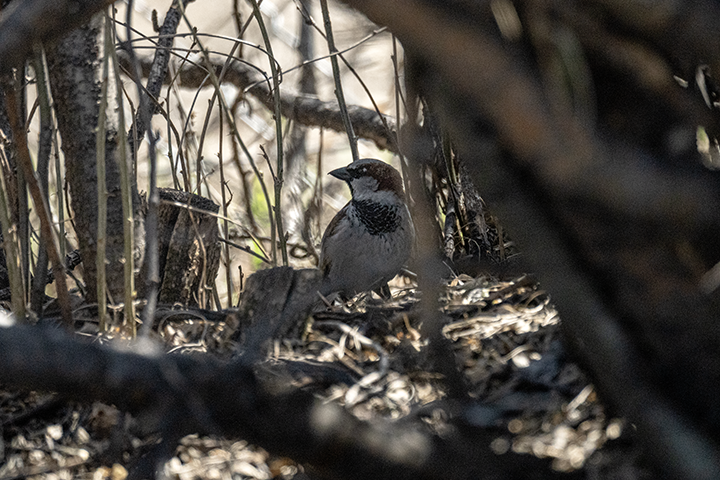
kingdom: Animalia
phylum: Chordata
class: Aves
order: Passeriformes
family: Passeridae
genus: Passer
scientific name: Passer domesticus
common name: House sparrow
